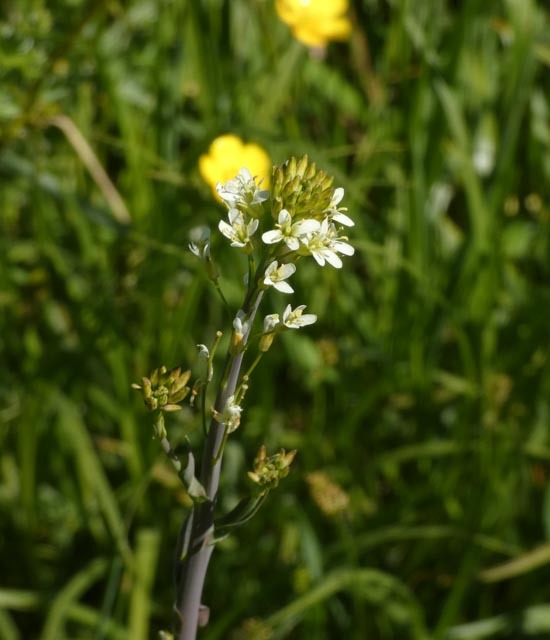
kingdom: Plantae
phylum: Tracheophyta
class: Magnoliopsida
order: Brassicales
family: Brassicaceae
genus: Turritis
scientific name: Turritis glabra
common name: Tower rockcress
